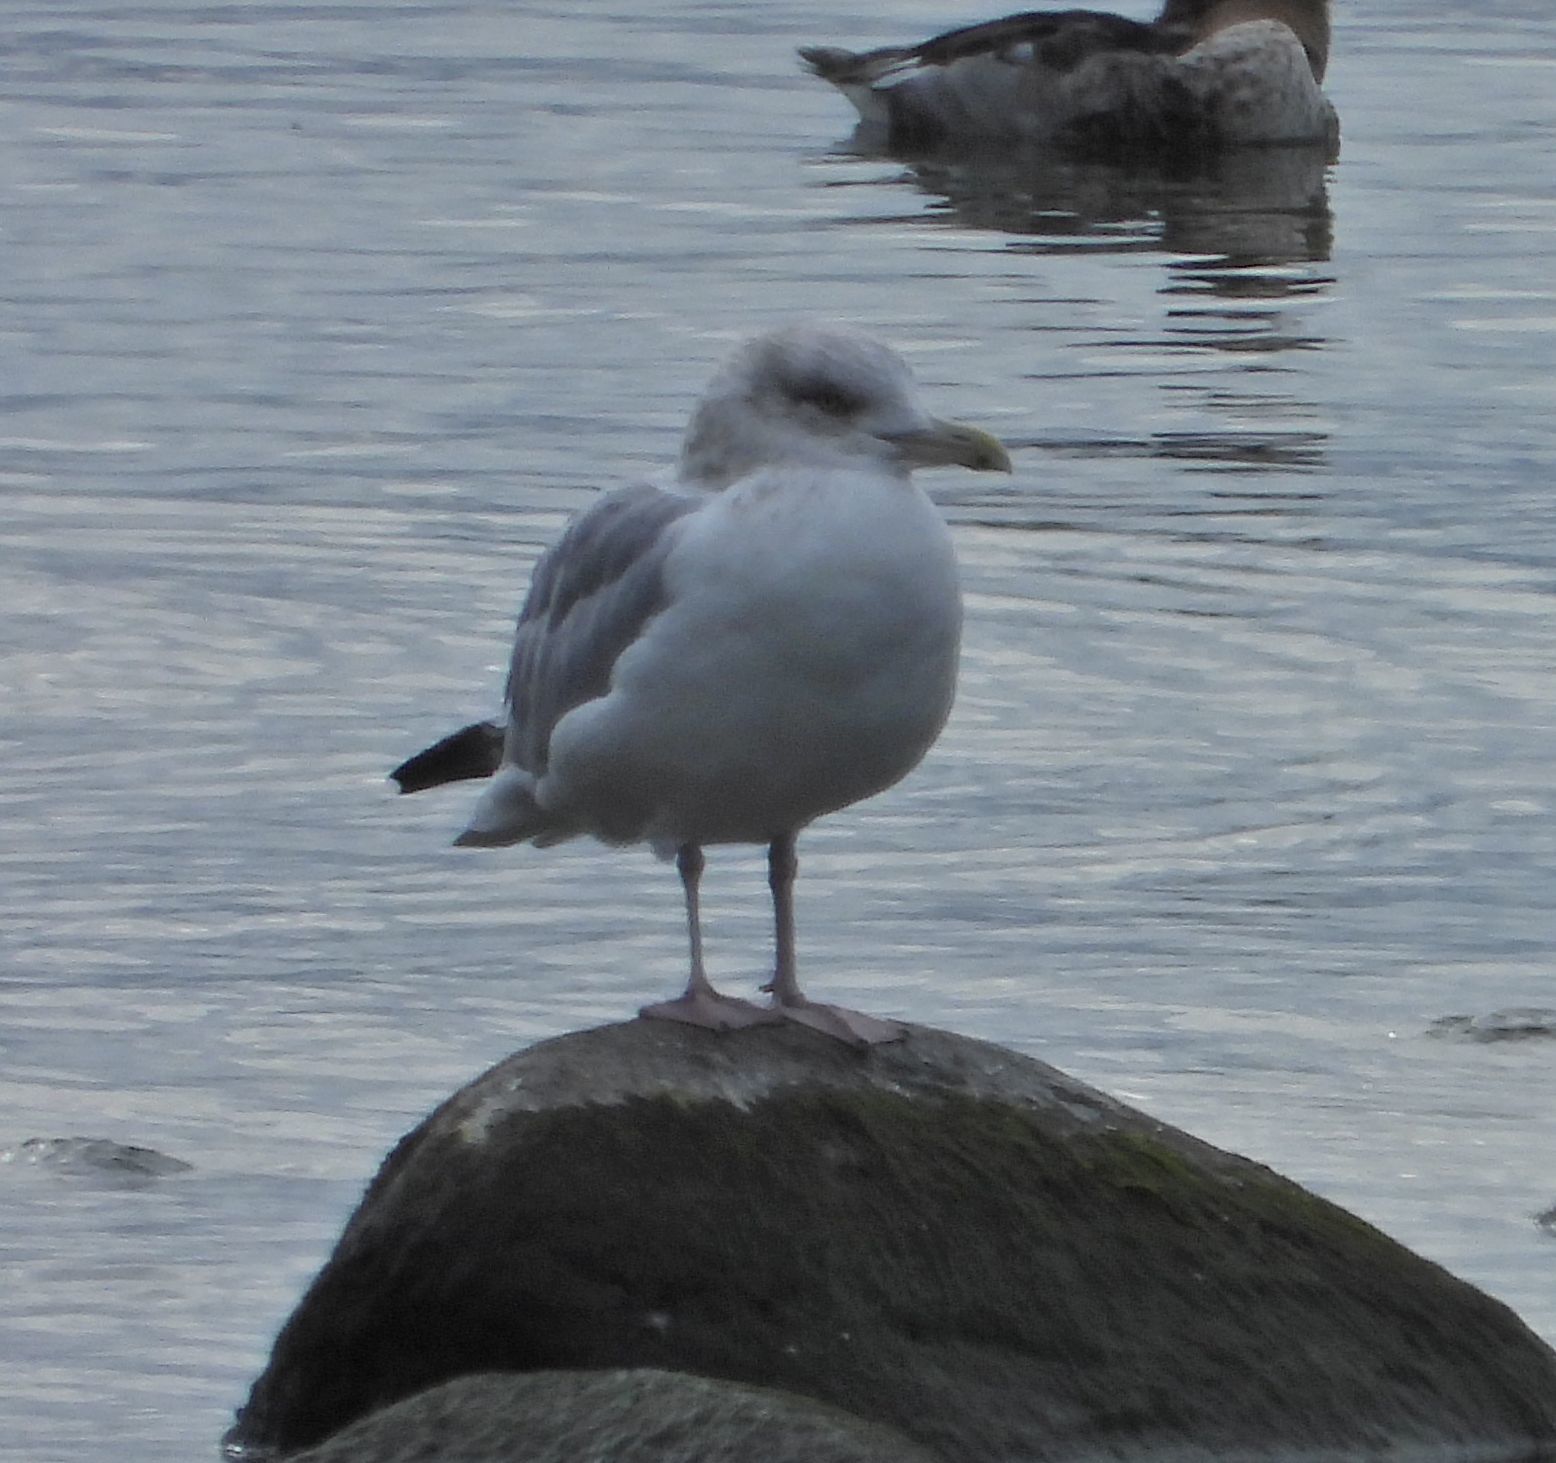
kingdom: Animalia
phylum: Chordata
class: Aves
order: Charadriiformes
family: Laridae
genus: Larus
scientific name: Larus argentatus
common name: Herring gull
